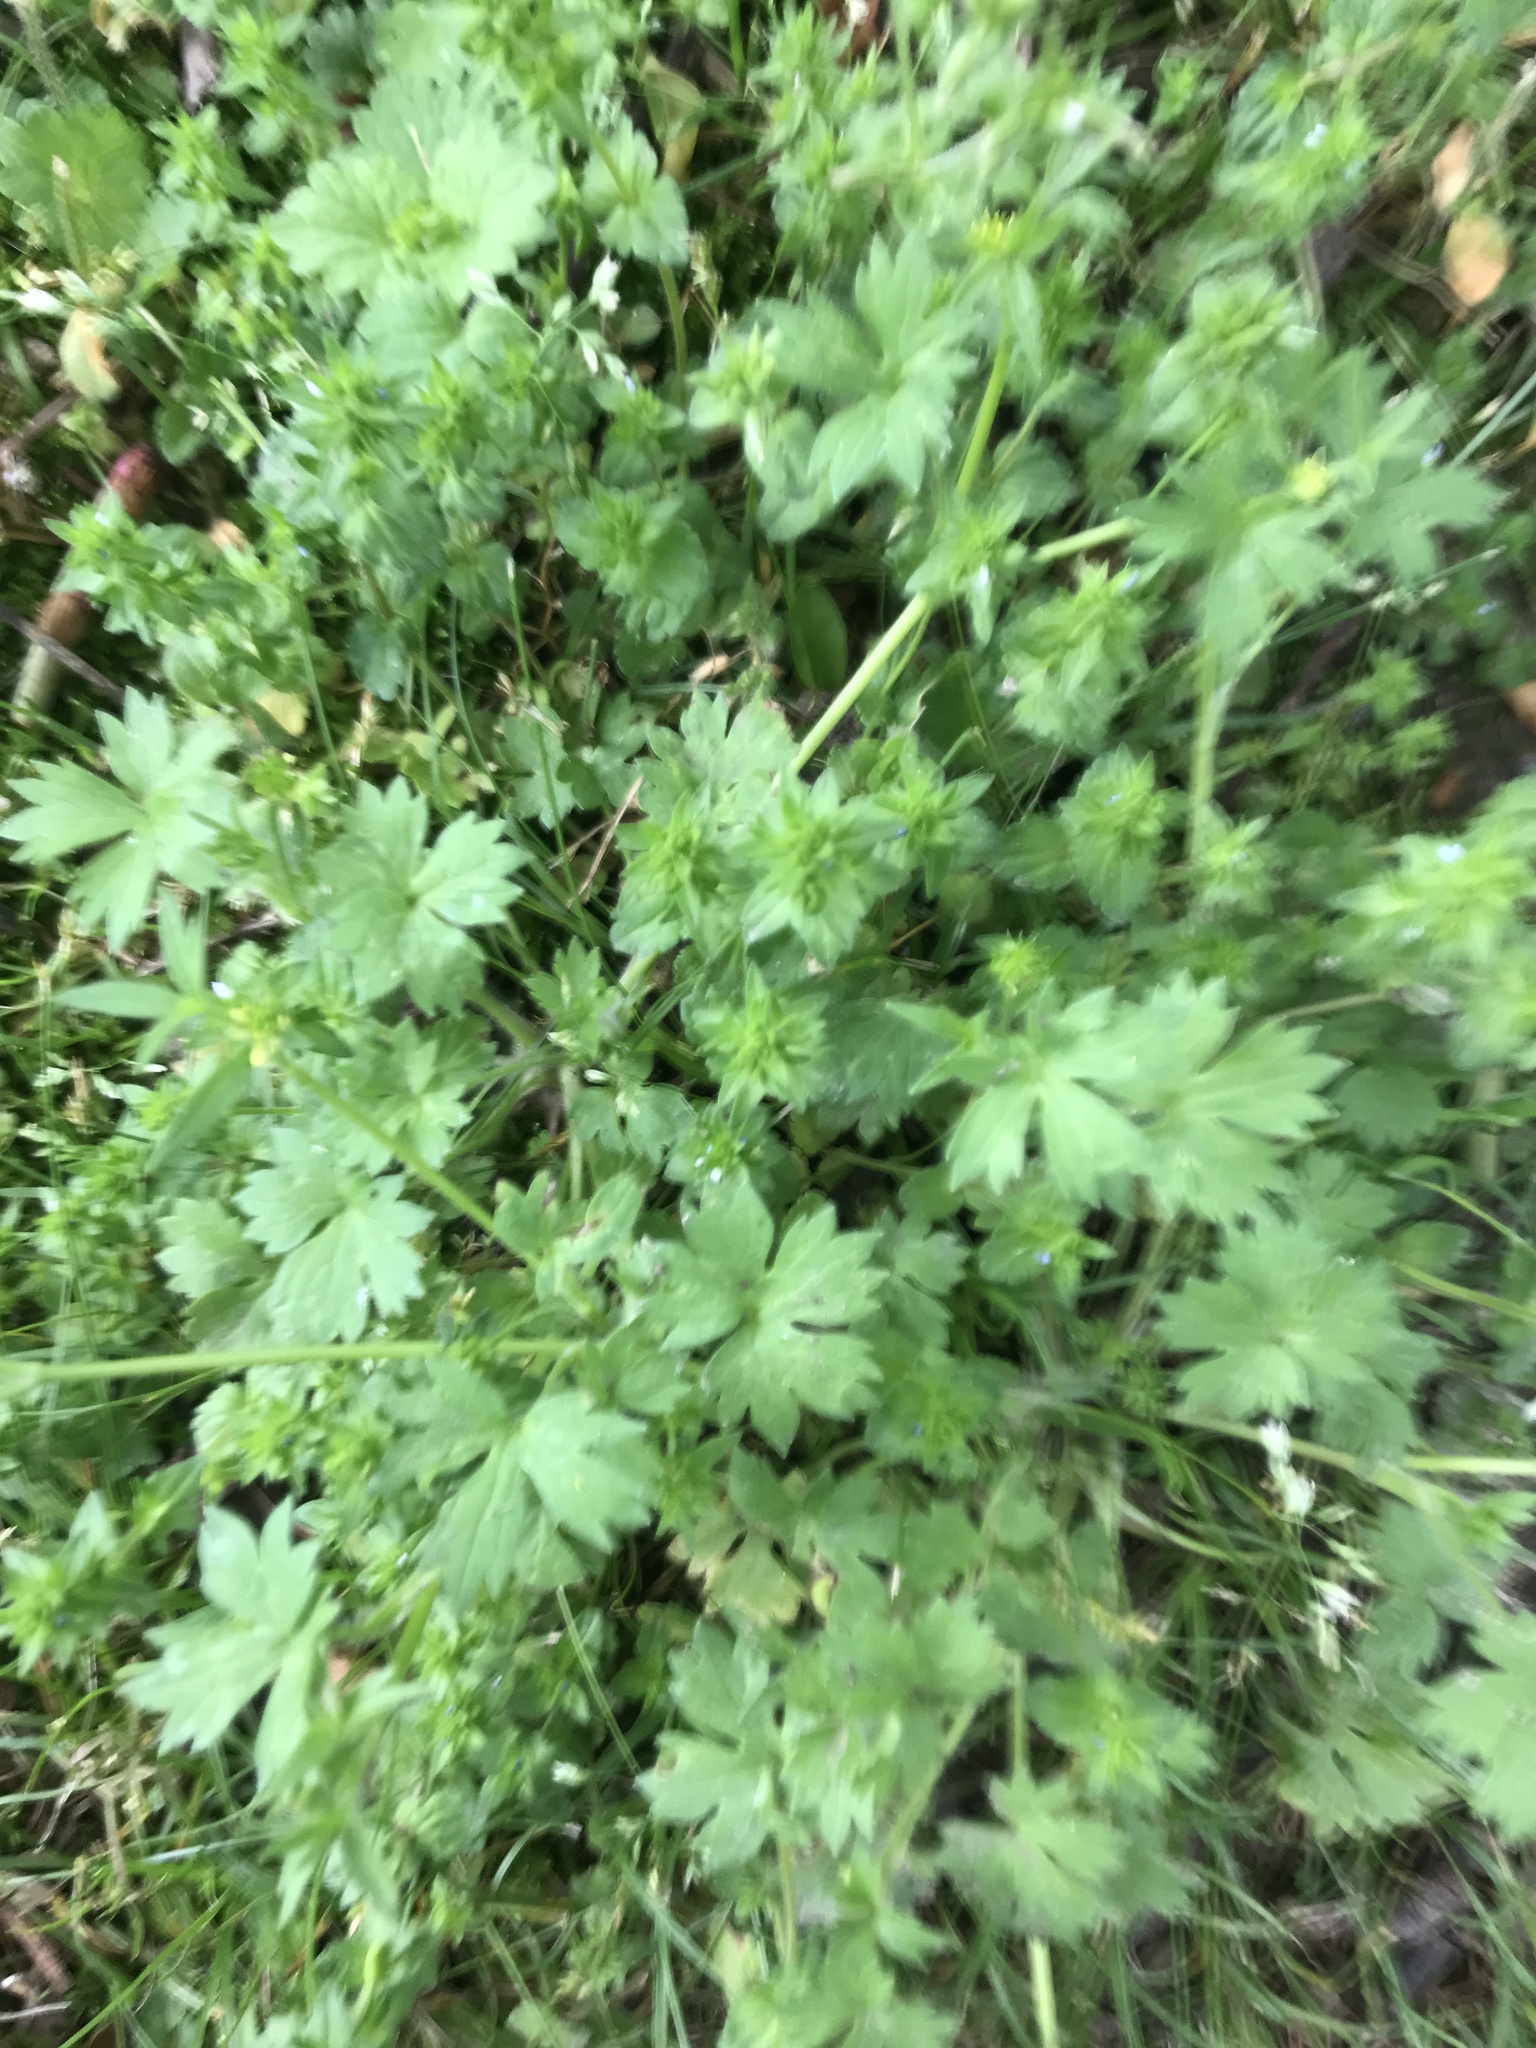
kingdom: Plantae
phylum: Tracheophyta
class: Magnoliopsida
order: Ranunculales
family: Ranunculaceae
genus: Ranunculus
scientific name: Ranunculus parviflorus
